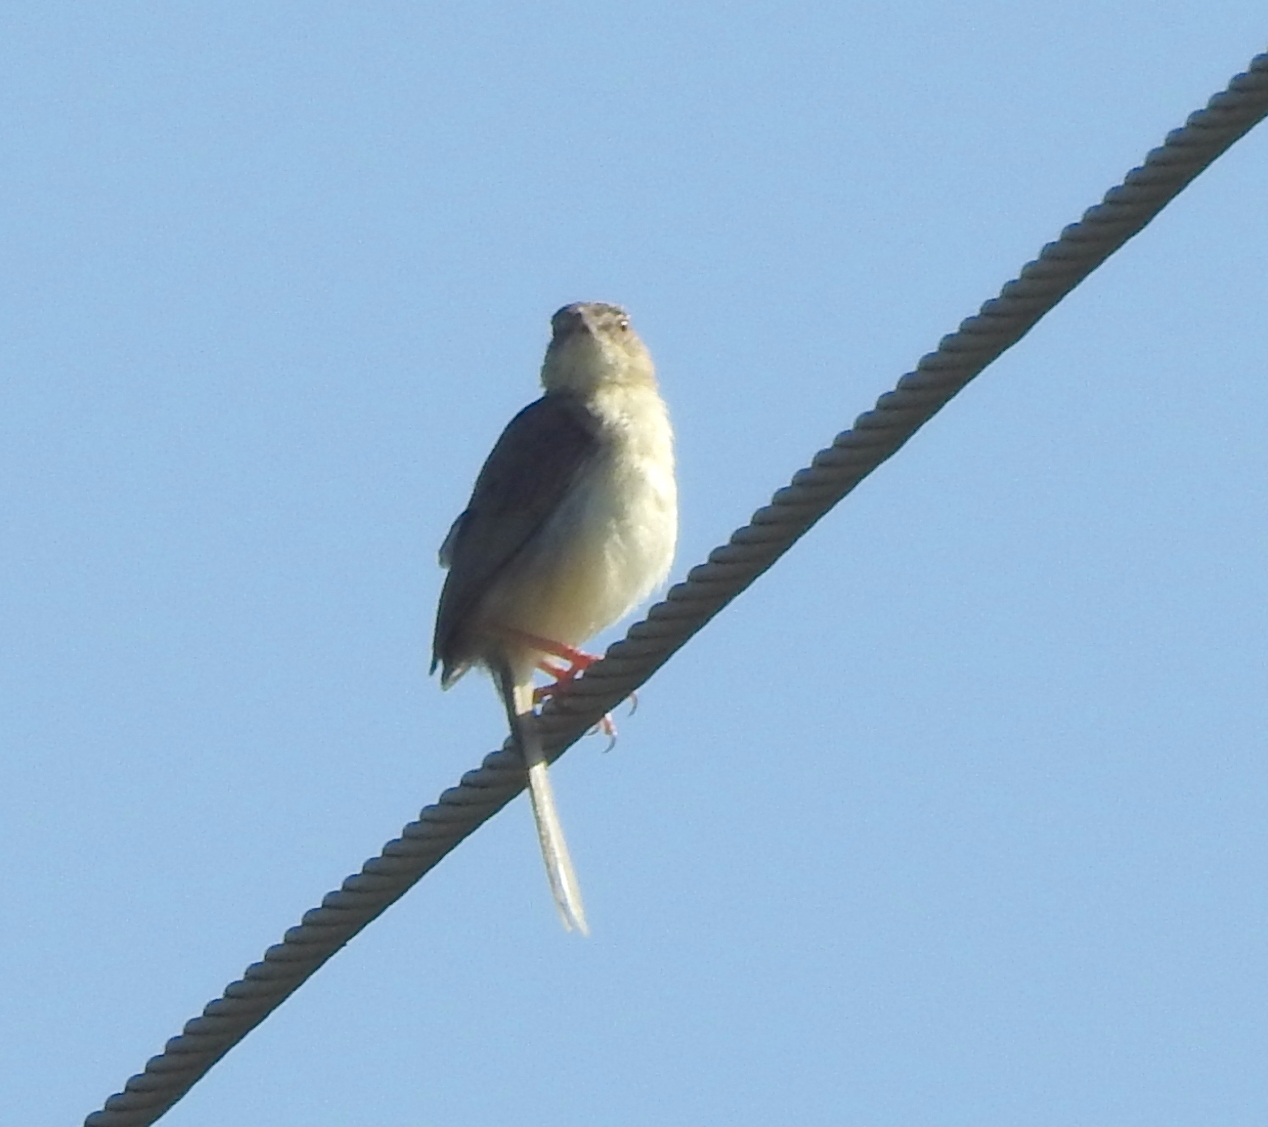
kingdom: Animalia
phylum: Chordata
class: Aves
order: Passeriformes
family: Cisticolidae
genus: Prinia
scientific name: Prinia sylvatica
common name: Jungle prinia
